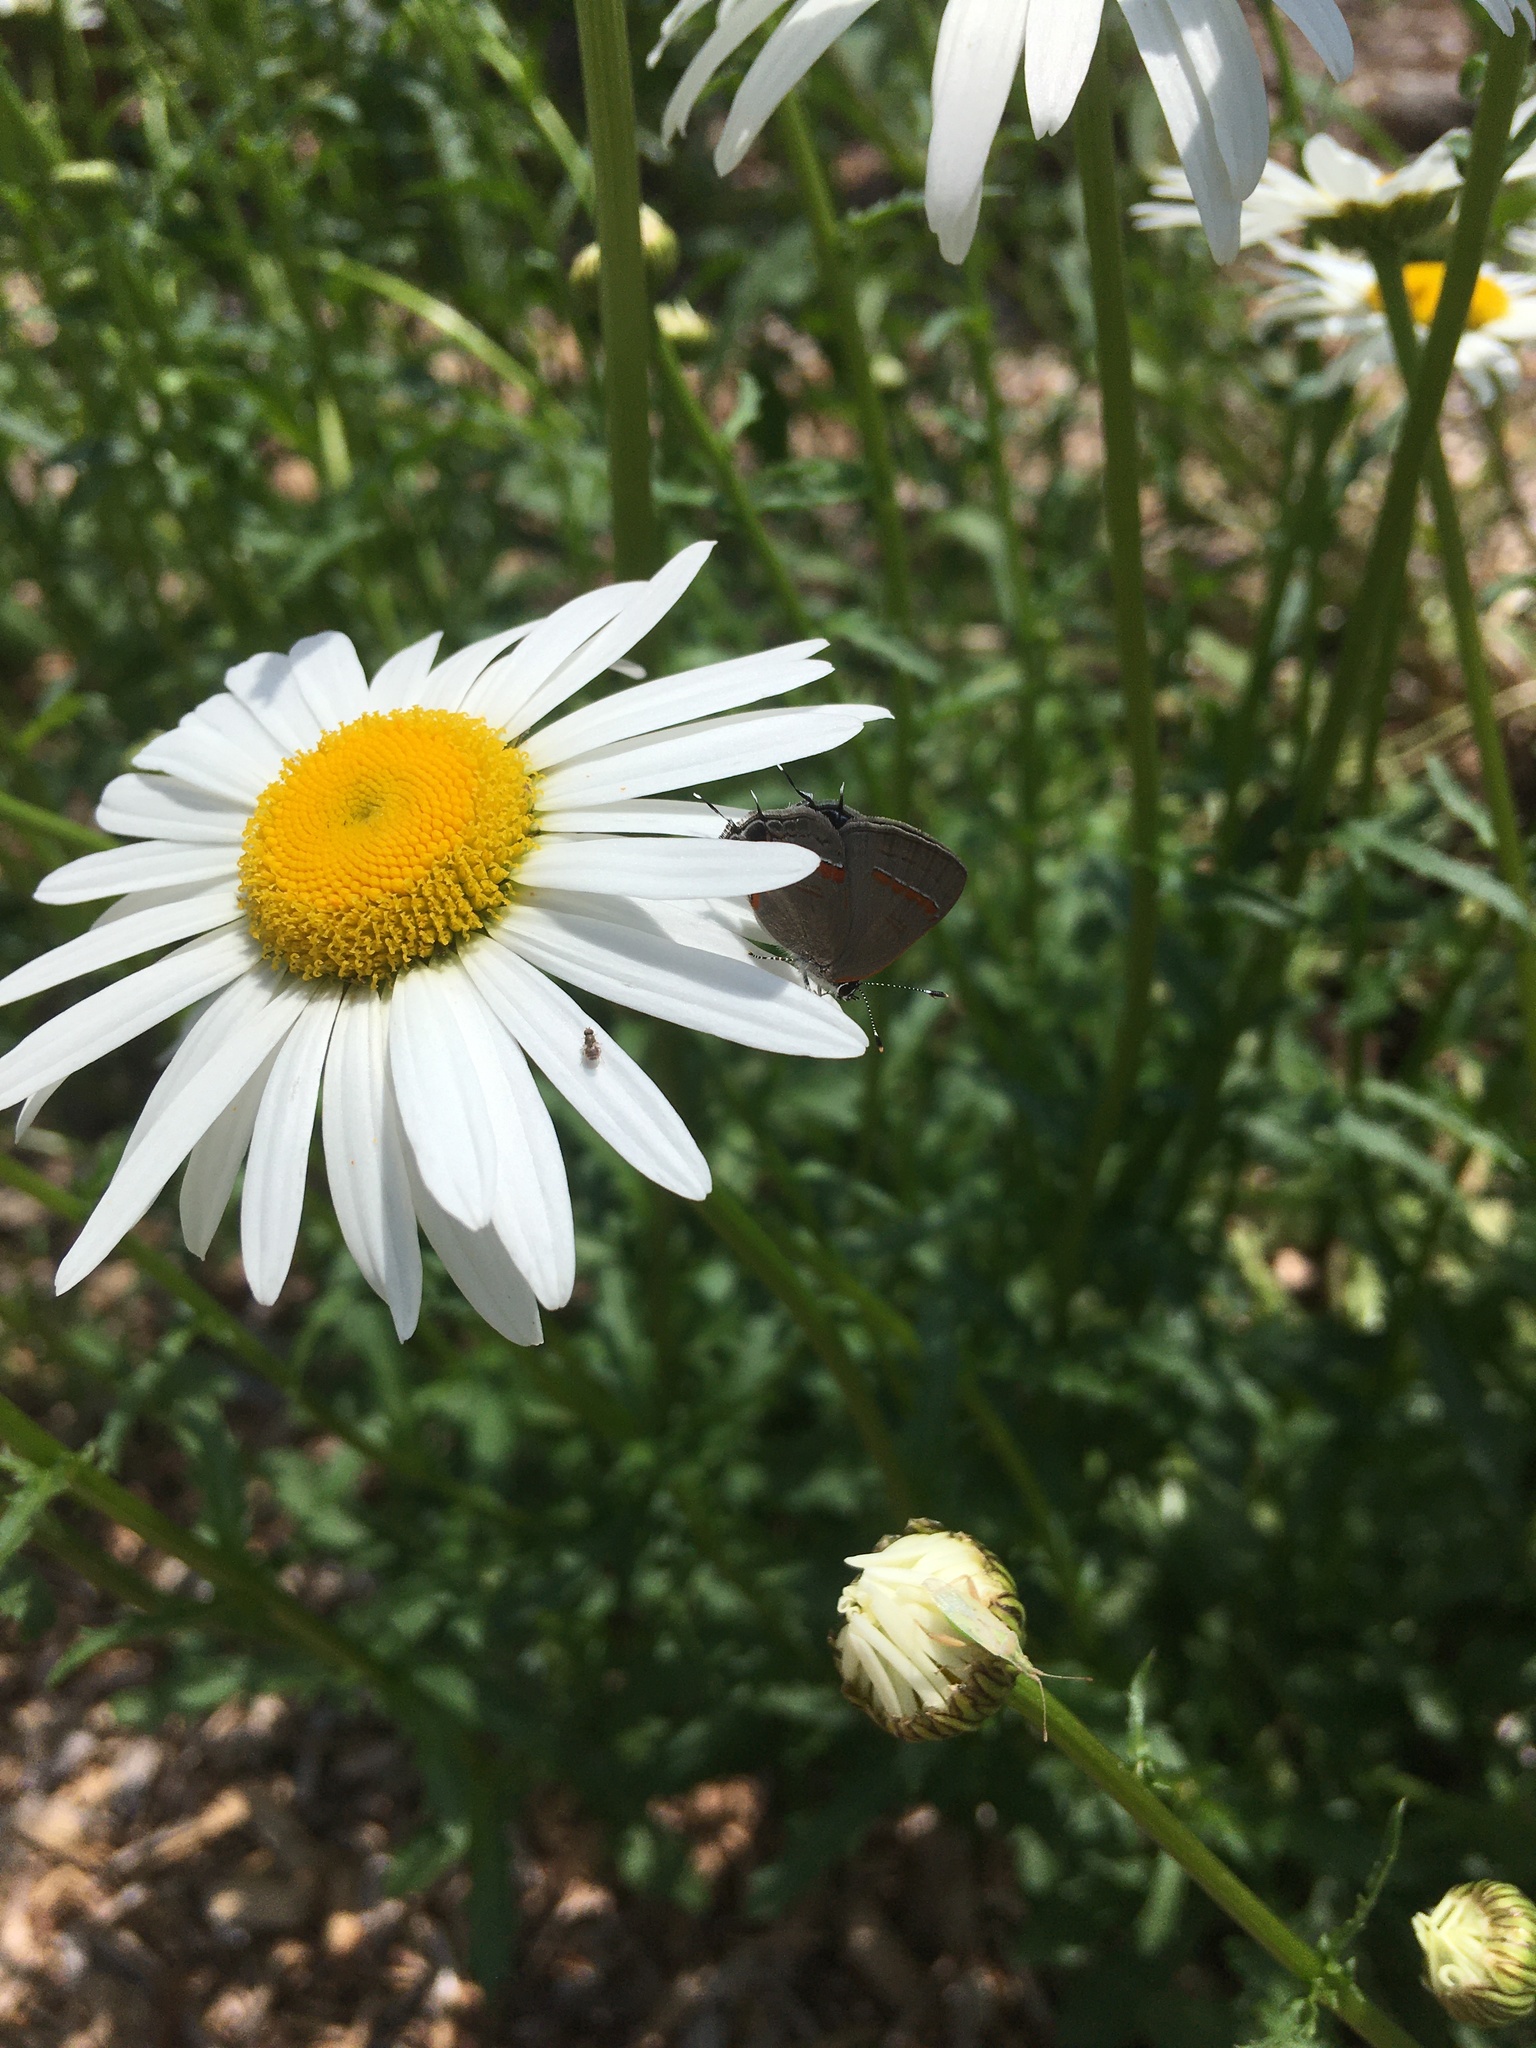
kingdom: Animalia
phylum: Arthropoda
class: Insecta
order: Lepidoptera
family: Lycaenidae
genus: Calycopis
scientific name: Calycopis cecrops
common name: Red-banded hairstreak
